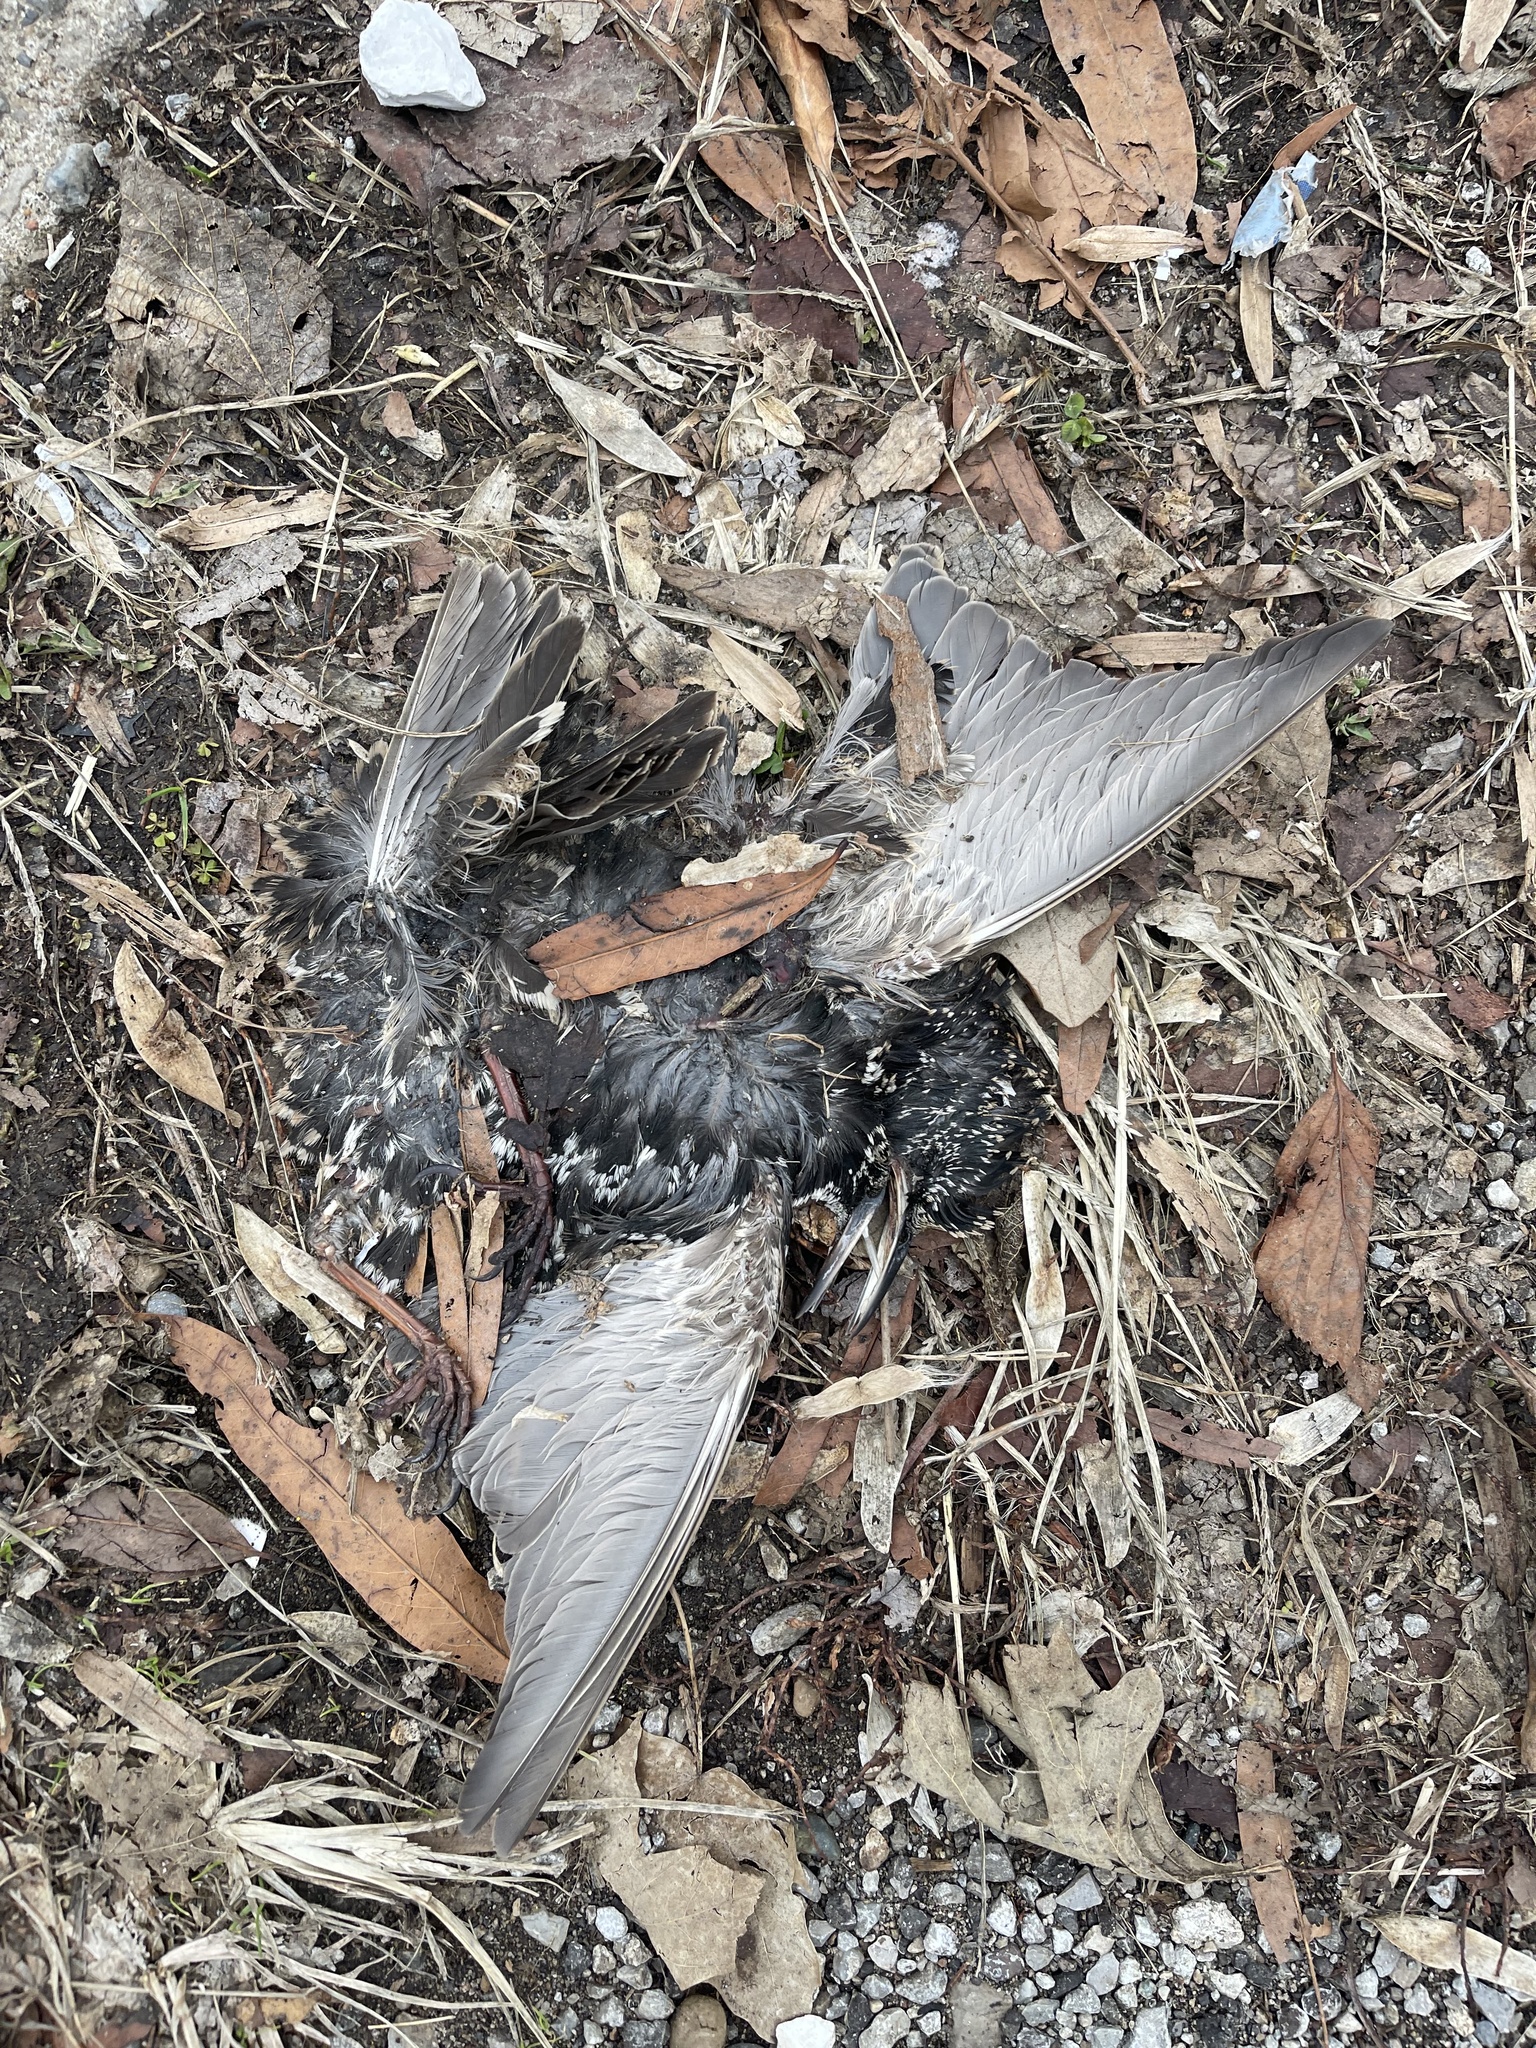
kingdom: Animalia
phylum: Chordata
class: Aves
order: Passeriformes
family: Sturnidae
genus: Sturnus
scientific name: Sturnus vulgaris
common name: Common starling
